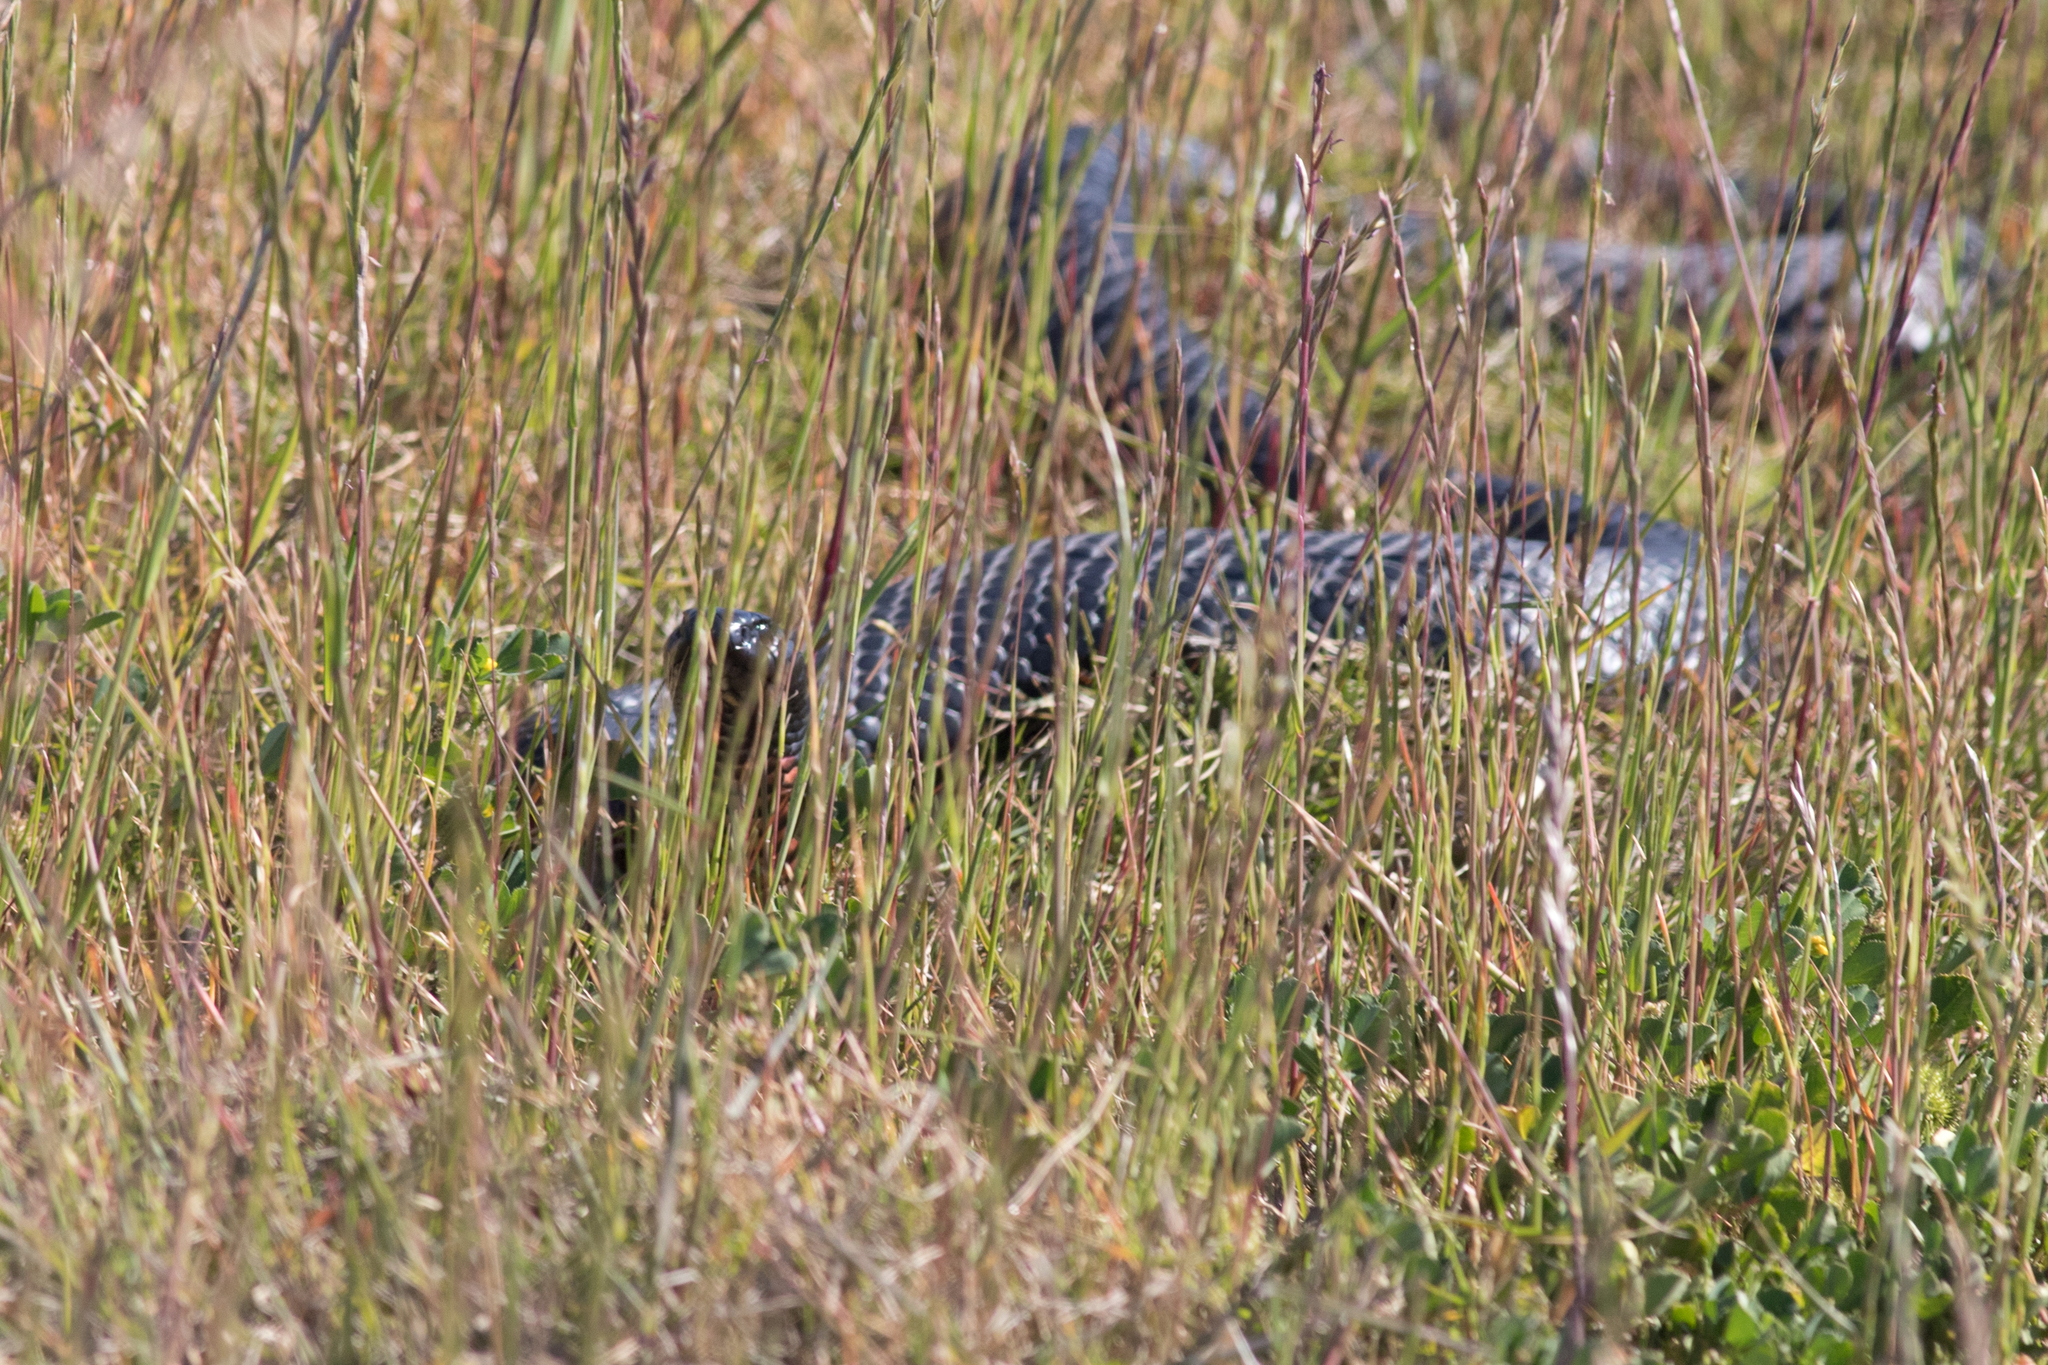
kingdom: Animalia
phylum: Chordata
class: Squamata
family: Elapidae
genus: Pseudechis
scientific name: Pseudechis porphyriacus
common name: Australian black snake
